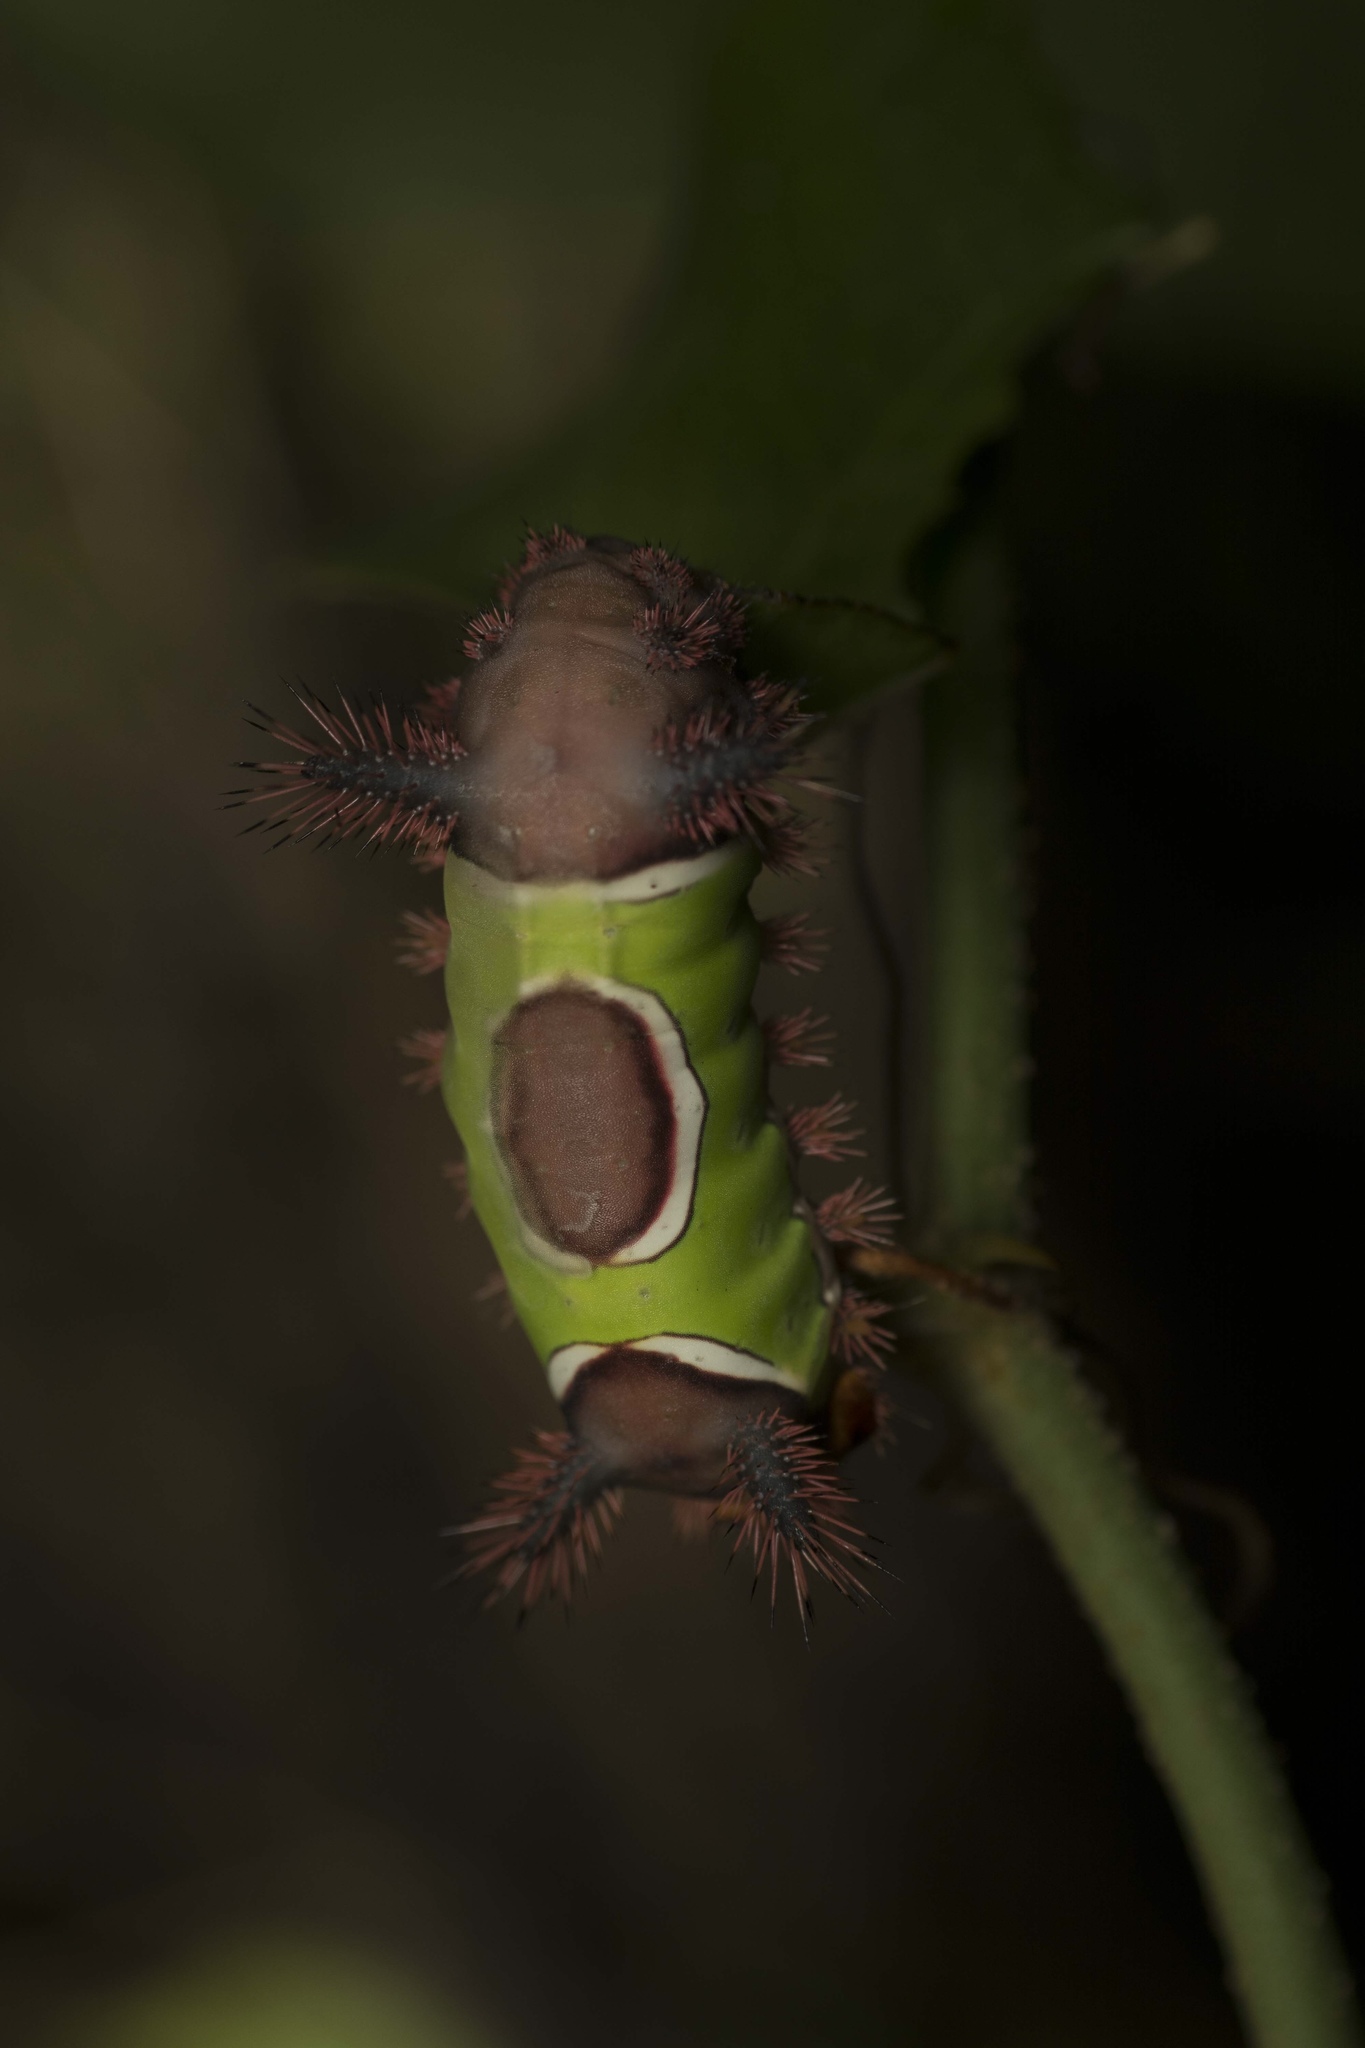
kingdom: Animalia
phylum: Arthropoda
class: Insecta
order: Lepidoptera
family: Limacodidae
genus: Acharia
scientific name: Acharia stimulea
